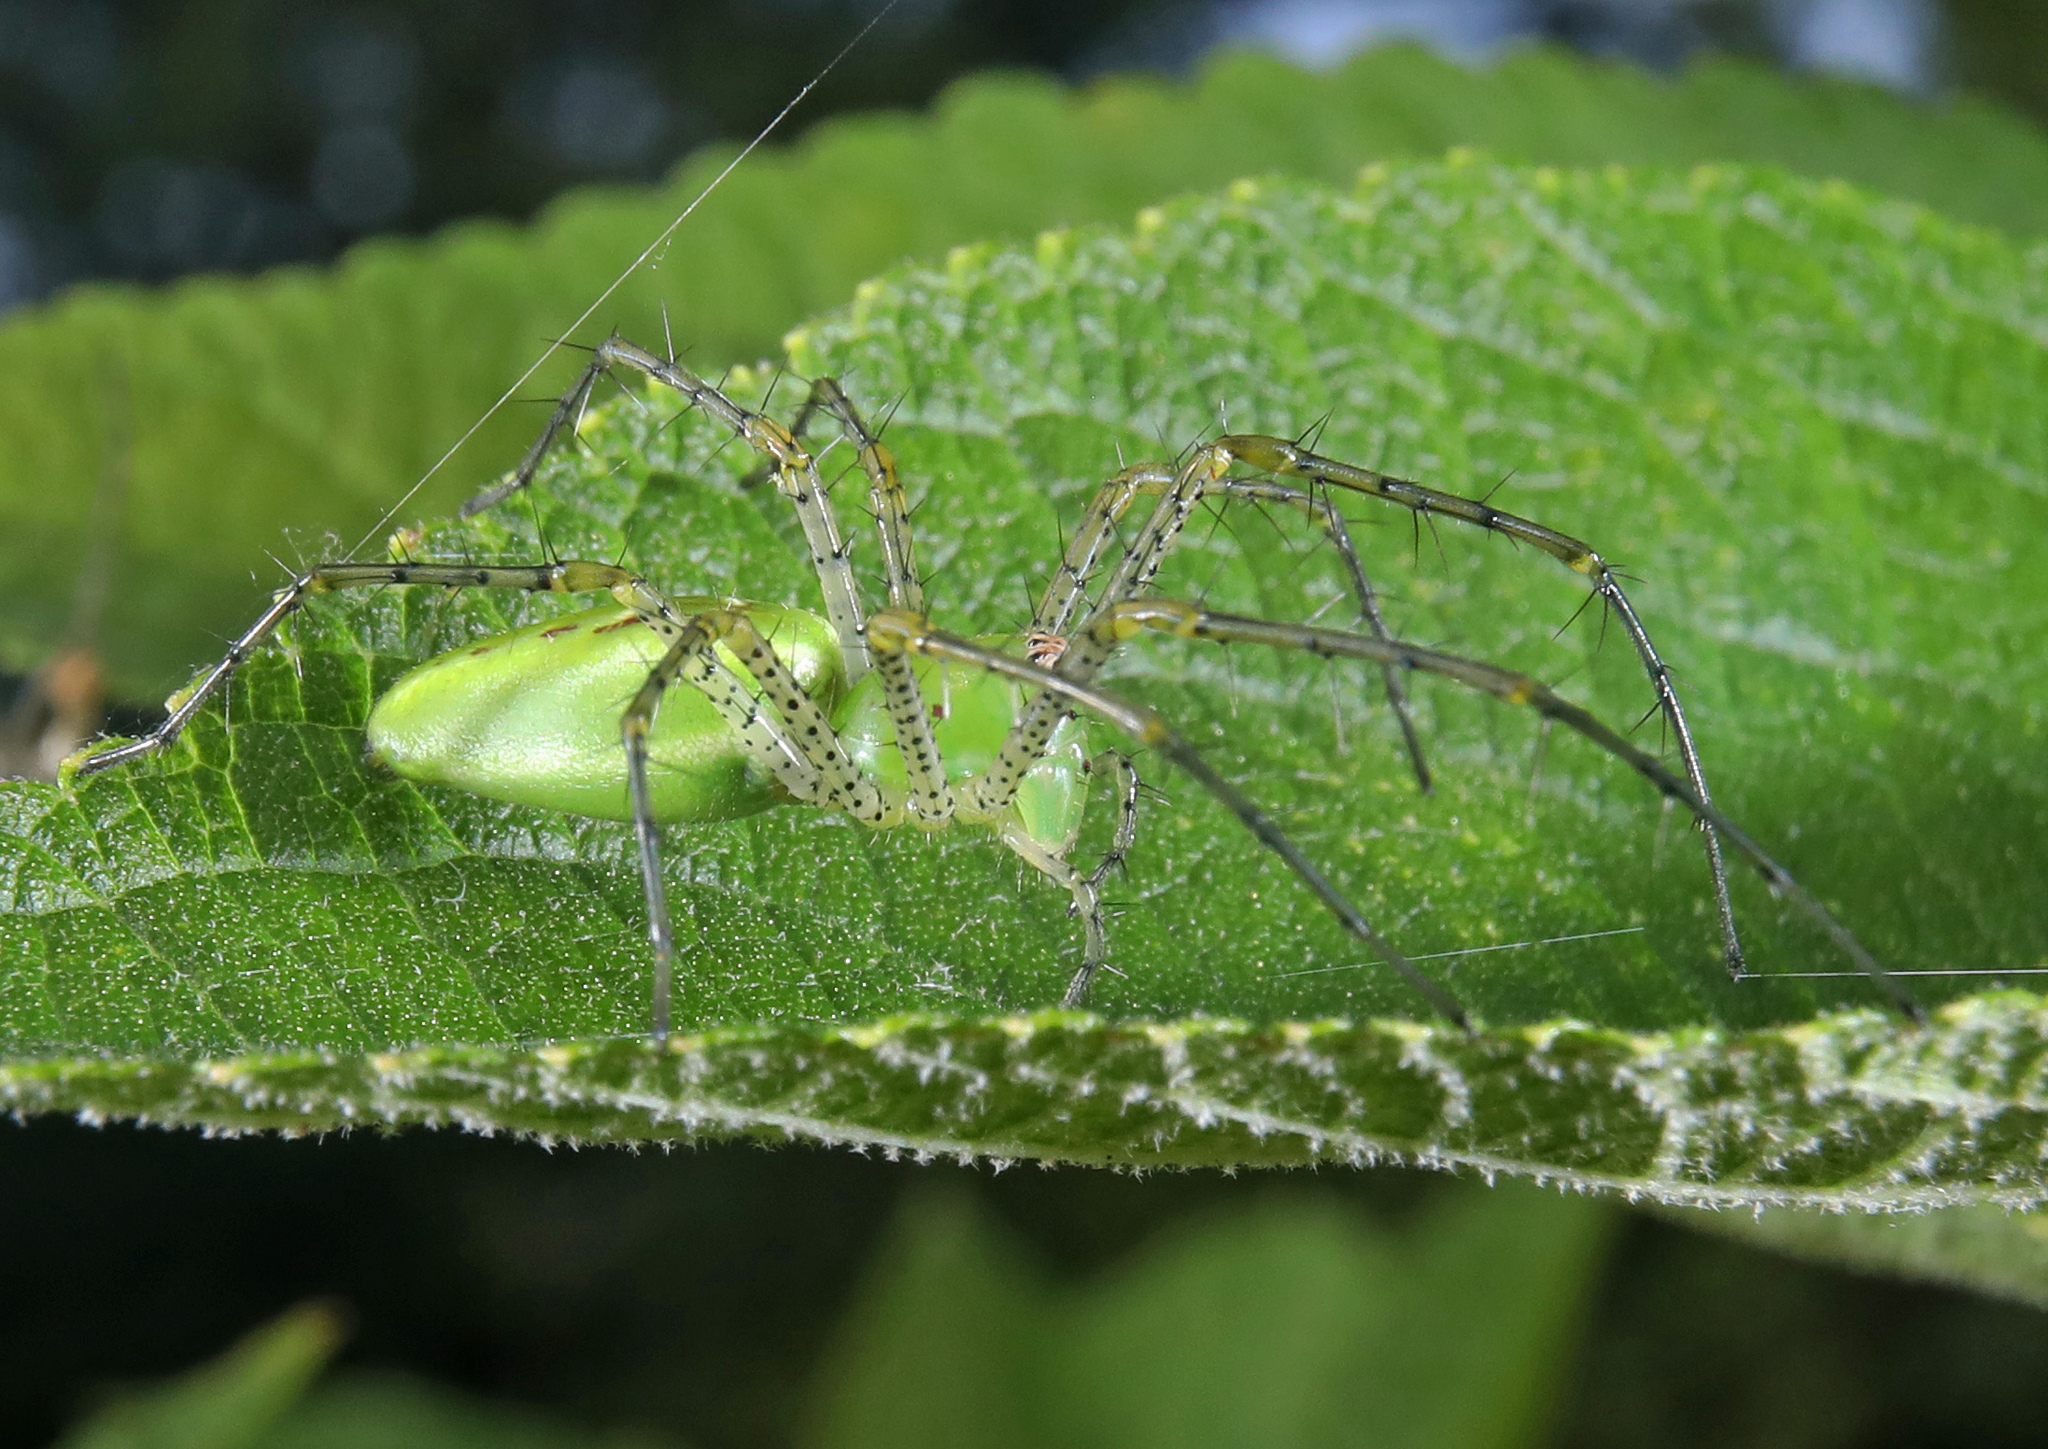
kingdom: Animalia
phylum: Arthropoda
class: Arachnida
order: Araneae
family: Oxyopidae
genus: Peucetia
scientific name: Peucetia viridans
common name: Lynx spiders
